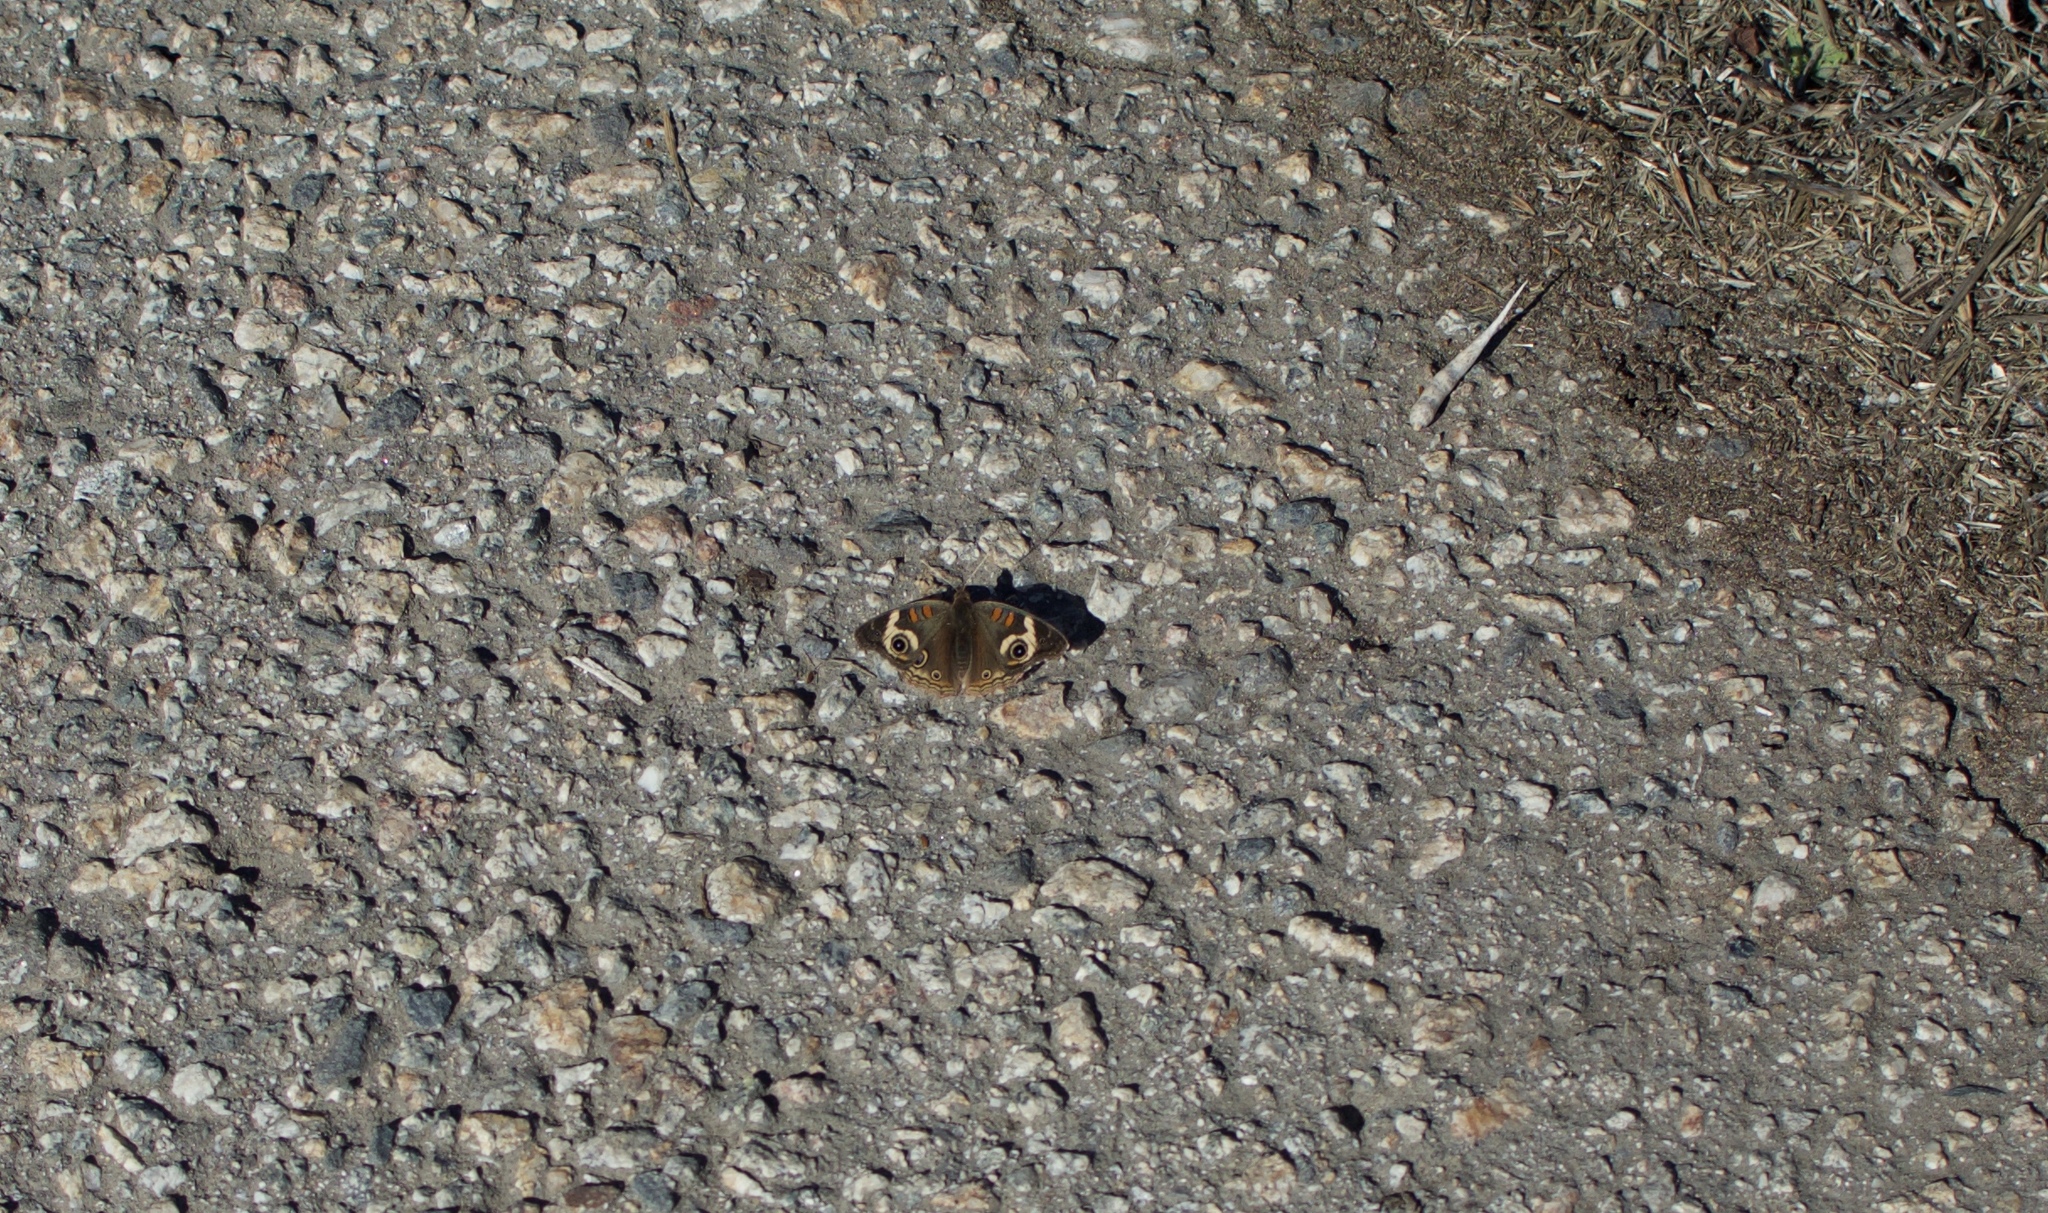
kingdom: Animalia
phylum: Arthropoda
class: Insecta
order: Lepidoptera
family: Nymphalidae
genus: Junonia
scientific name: Junonia grisea
